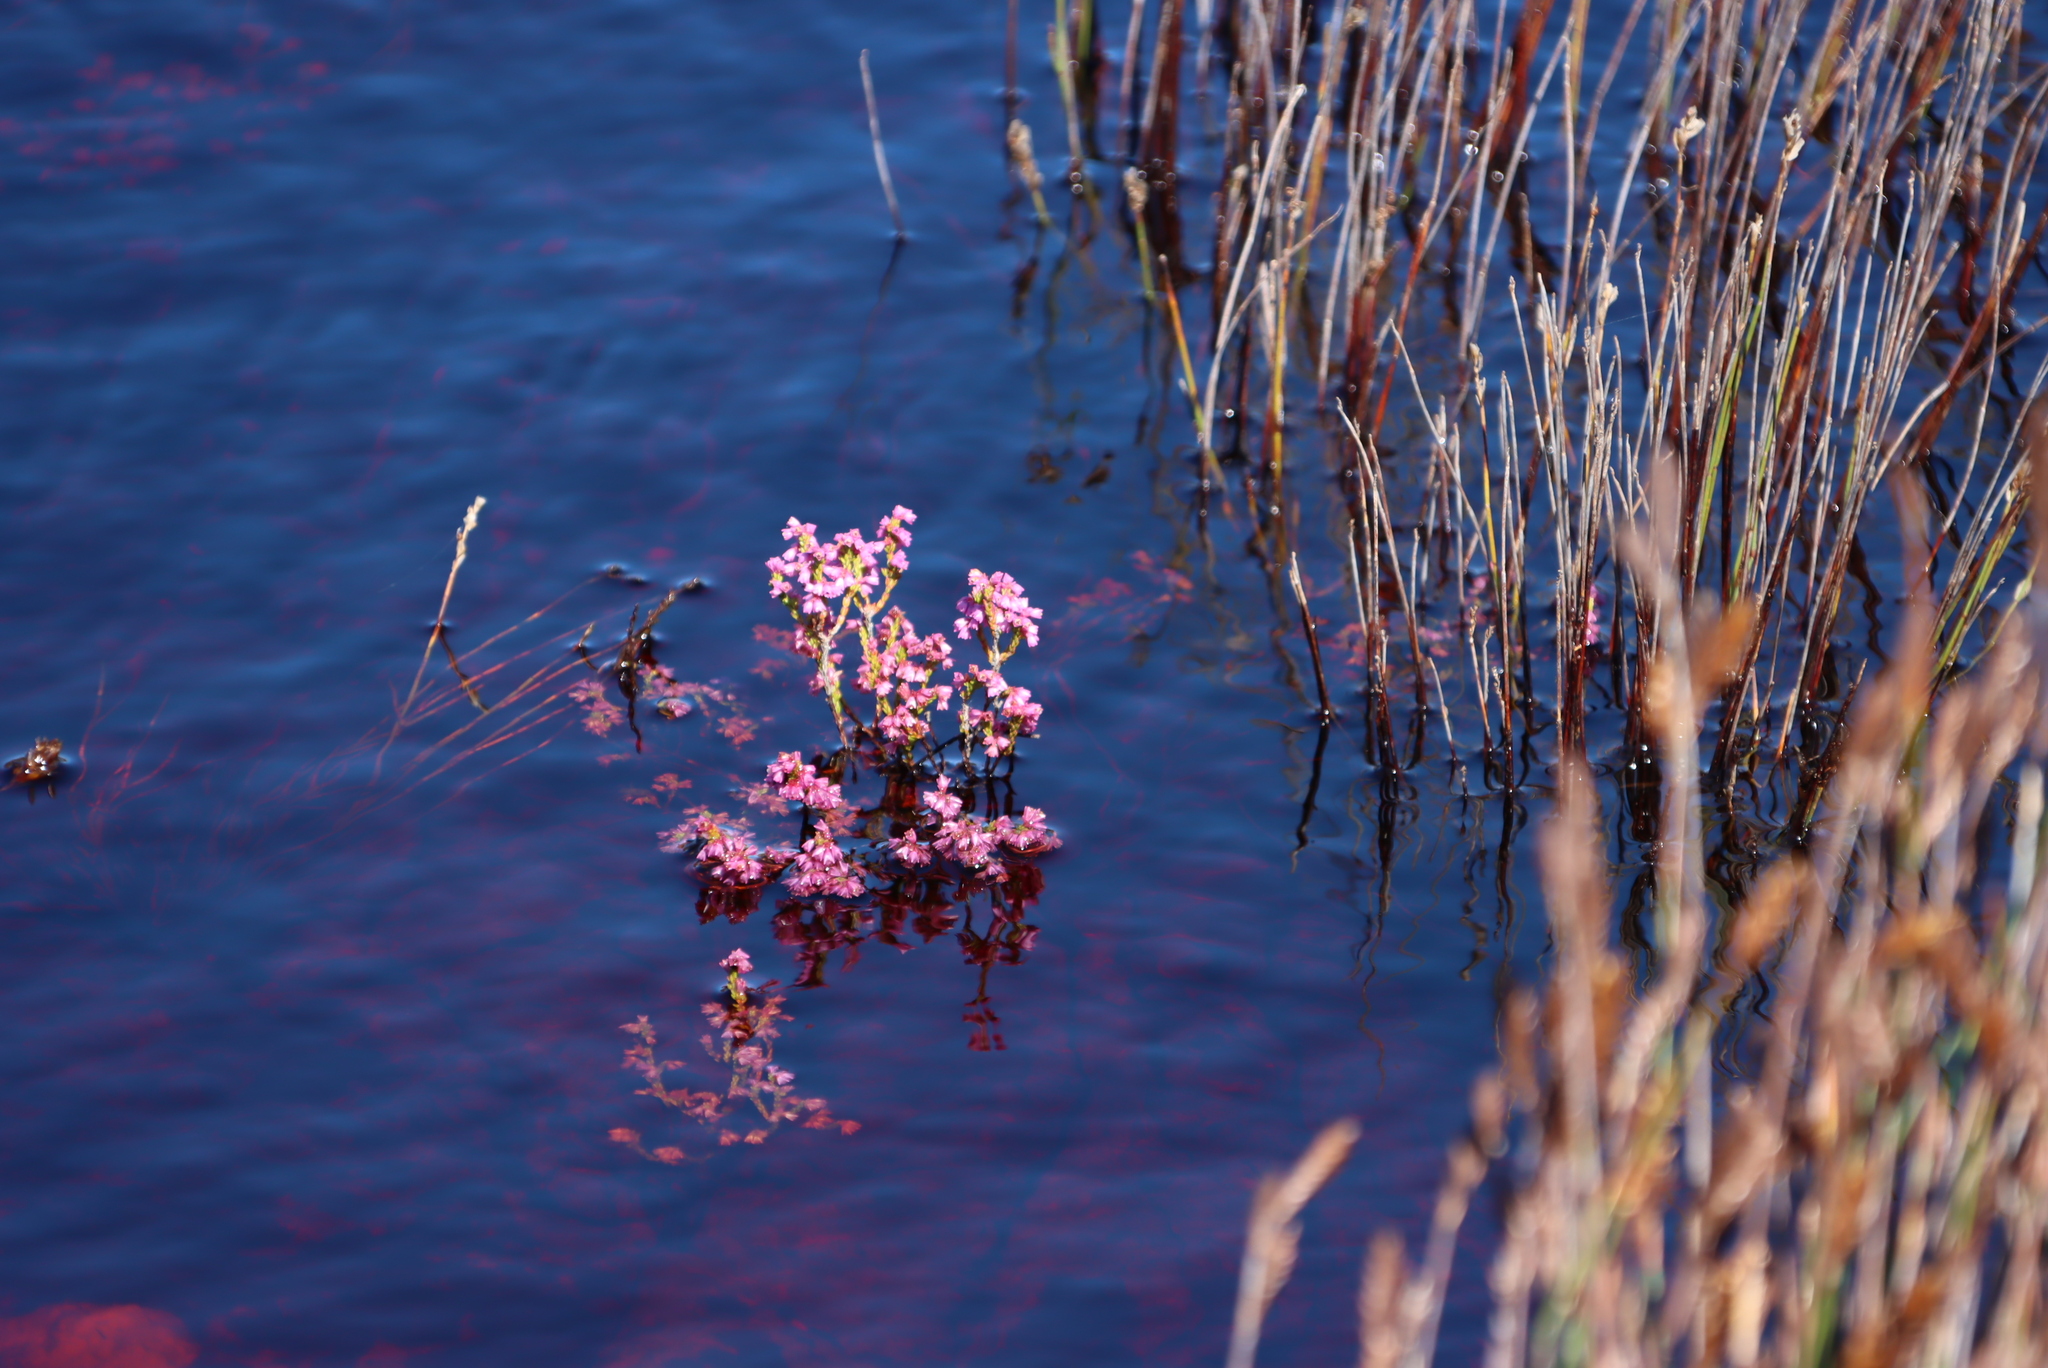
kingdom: Plantae
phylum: Tracheophyta
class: Magnoliopsida
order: Ericales
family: Ericaceae
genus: Erica
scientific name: Erica gnaphaloides
